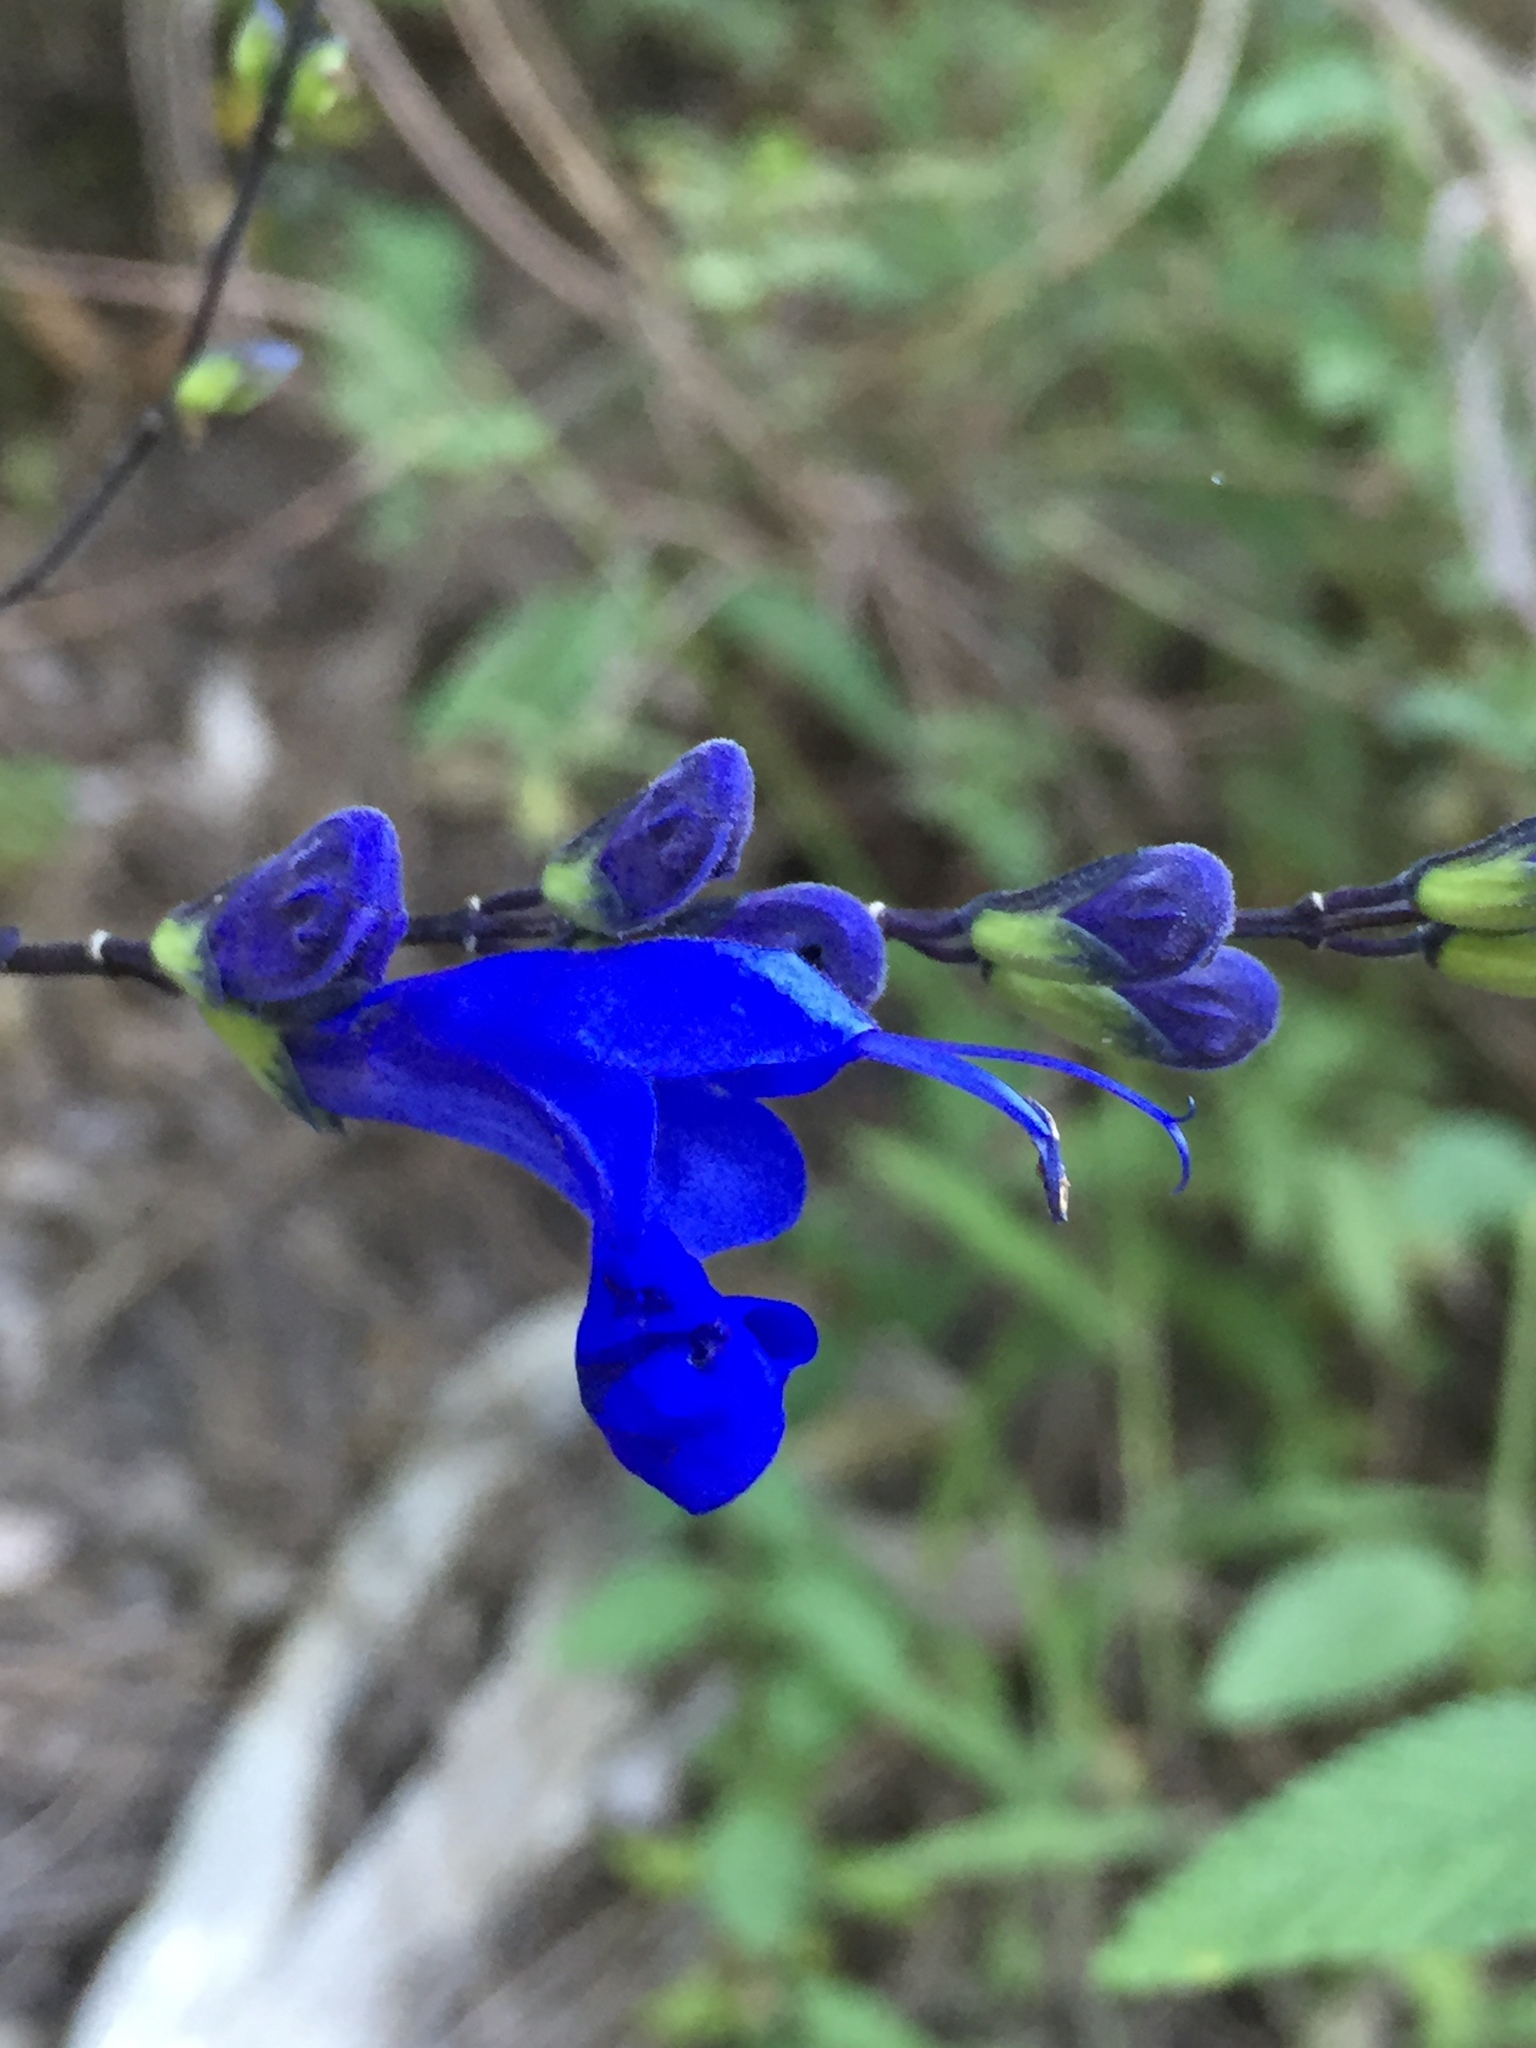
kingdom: Plantae
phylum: Tracheophyta
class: Magnoliopsida
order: Lamiales
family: Lamiaceae
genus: Salvia
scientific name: Salvia sagittata
